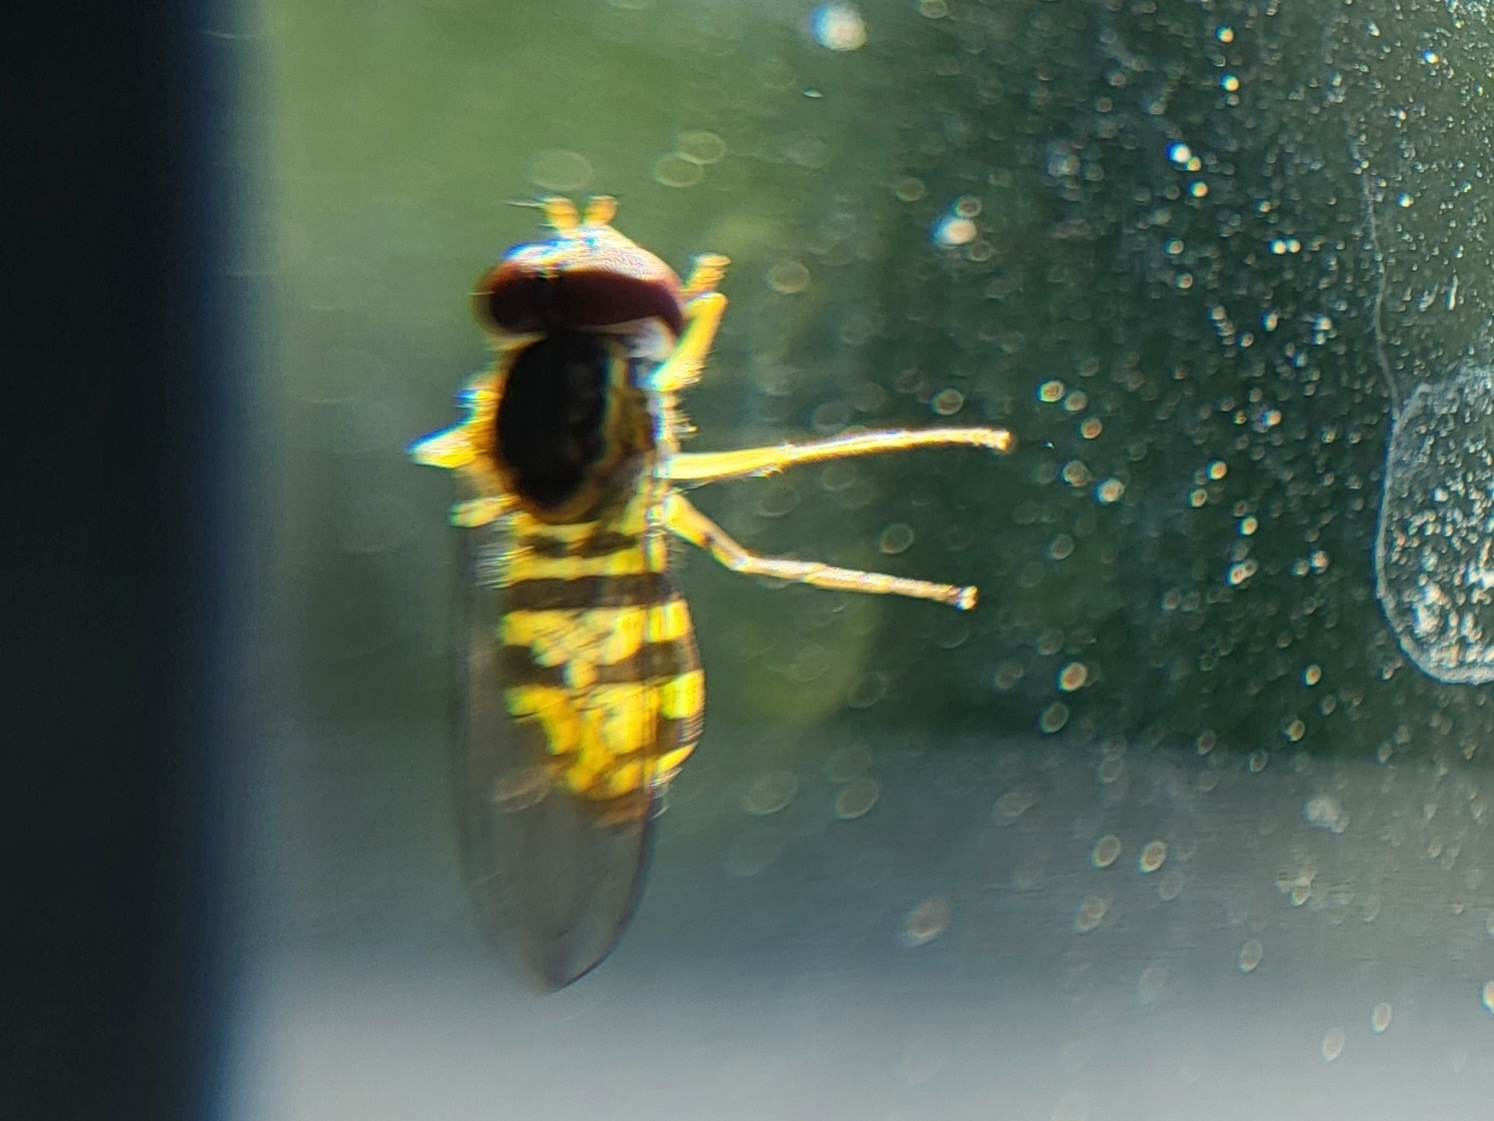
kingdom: Animalia
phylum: Arthropoda
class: Insecta
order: Diptera
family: Syrphidae
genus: Toxomerus
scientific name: Toxomerus geminatus
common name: Eastern calligrapher
